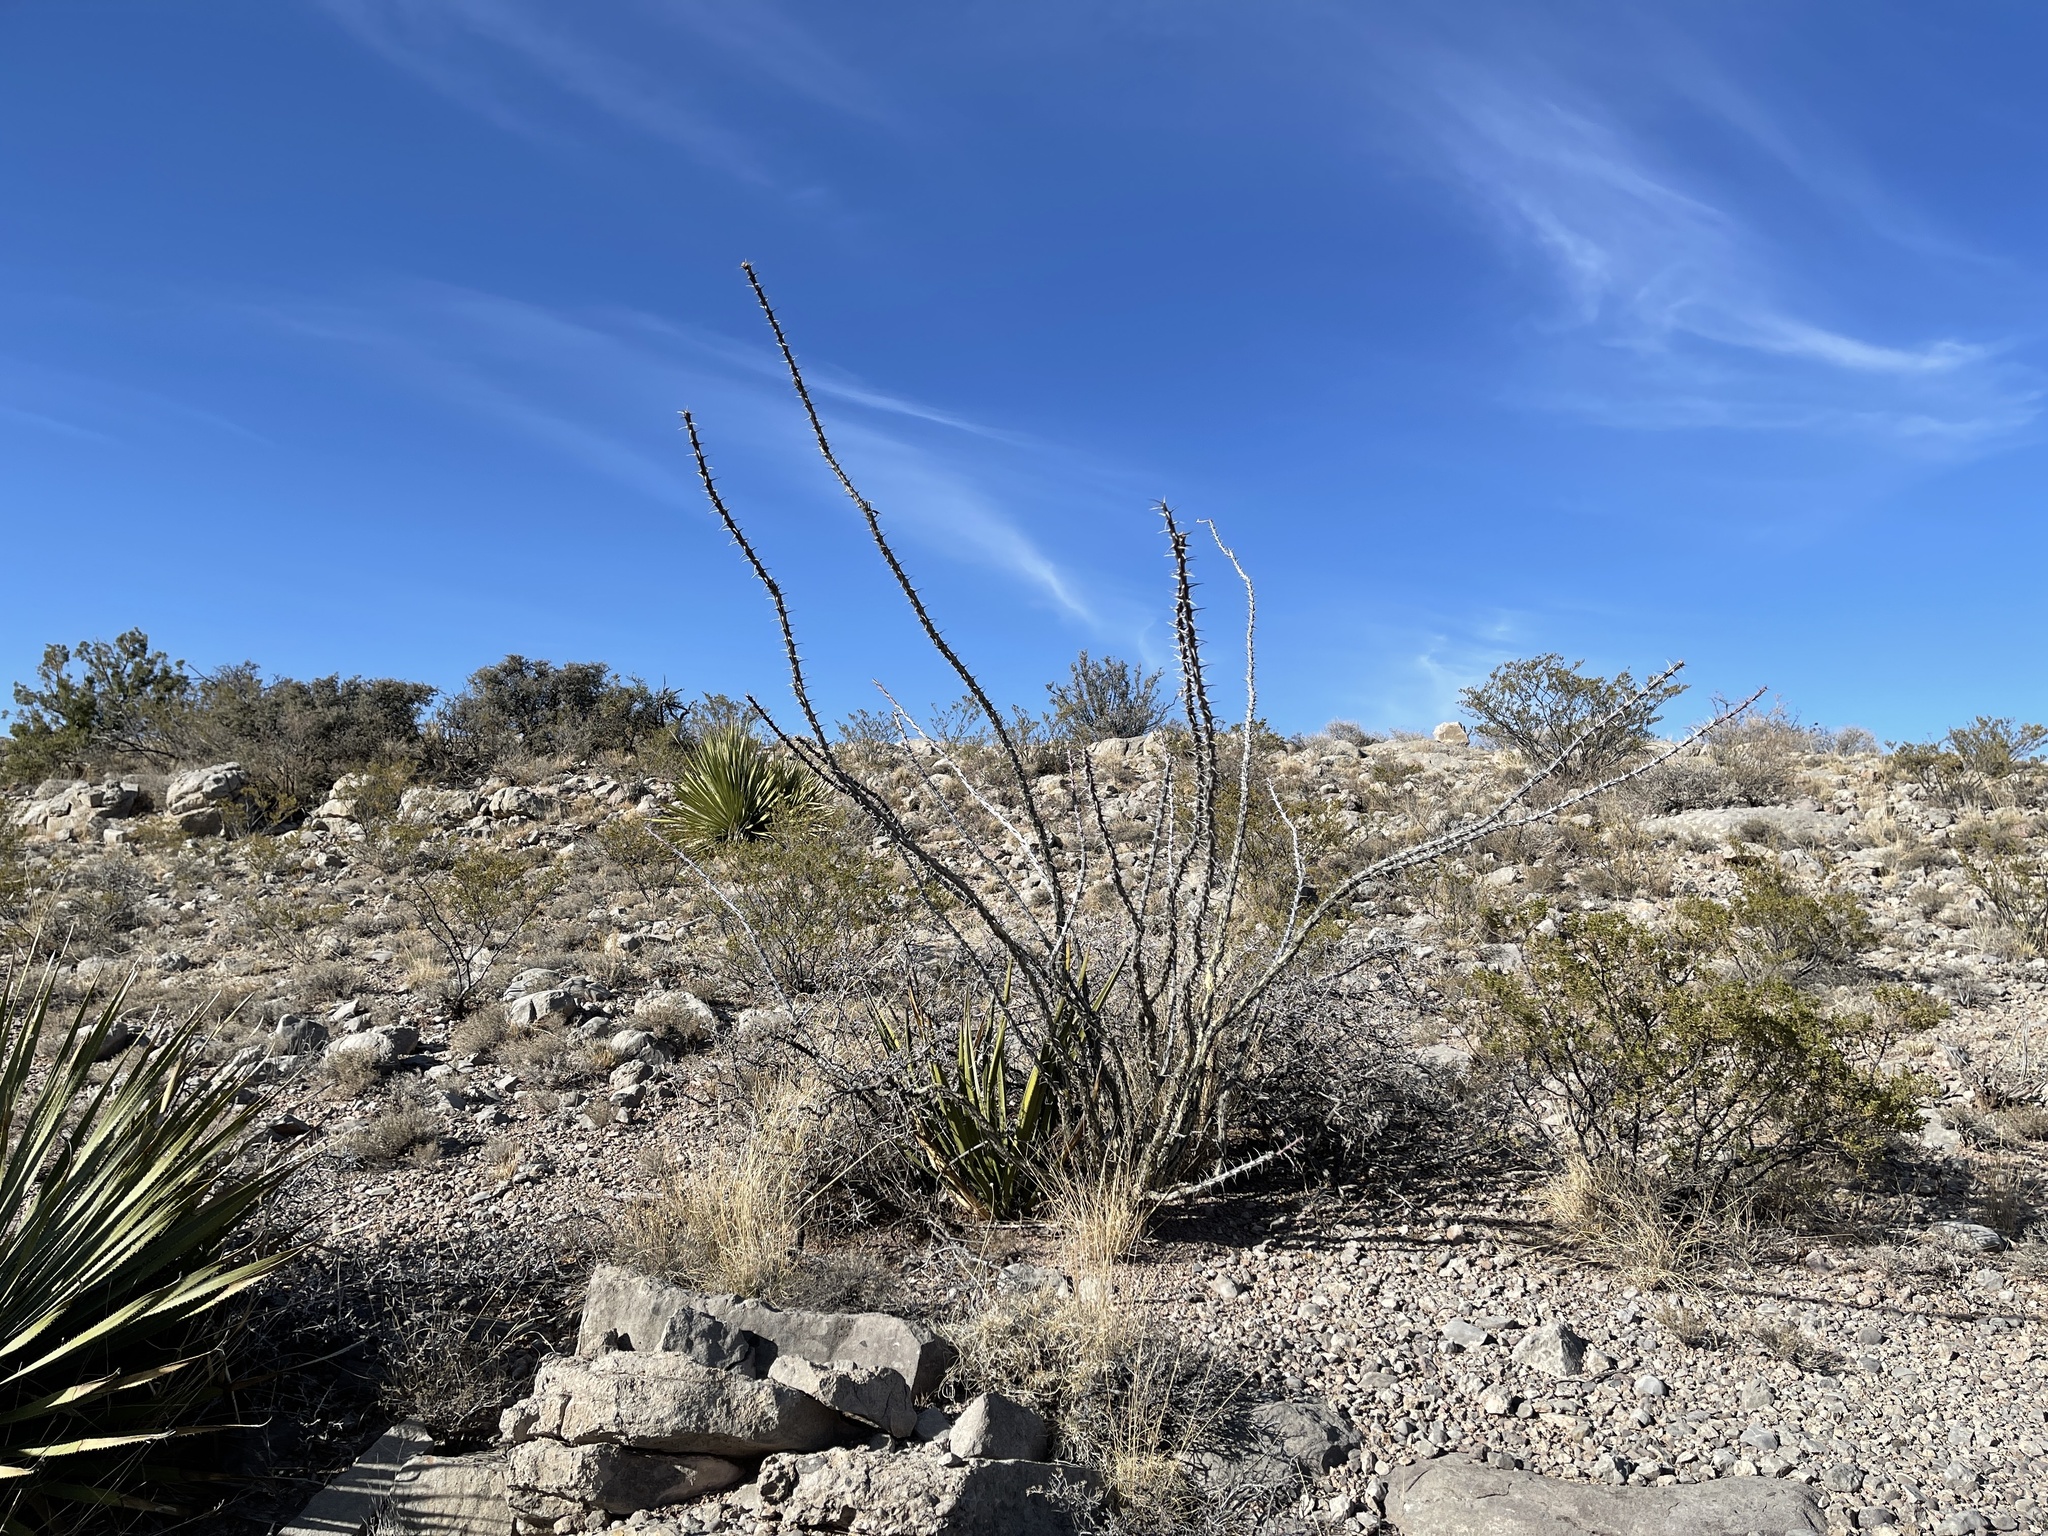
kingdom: Plantae
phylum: Tracheophyta
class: Magnoliopsida
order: Ericales
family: Fouquieriaceae
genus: Fouquieria
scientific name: Fouquieria splendens
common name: Vine-cactus
